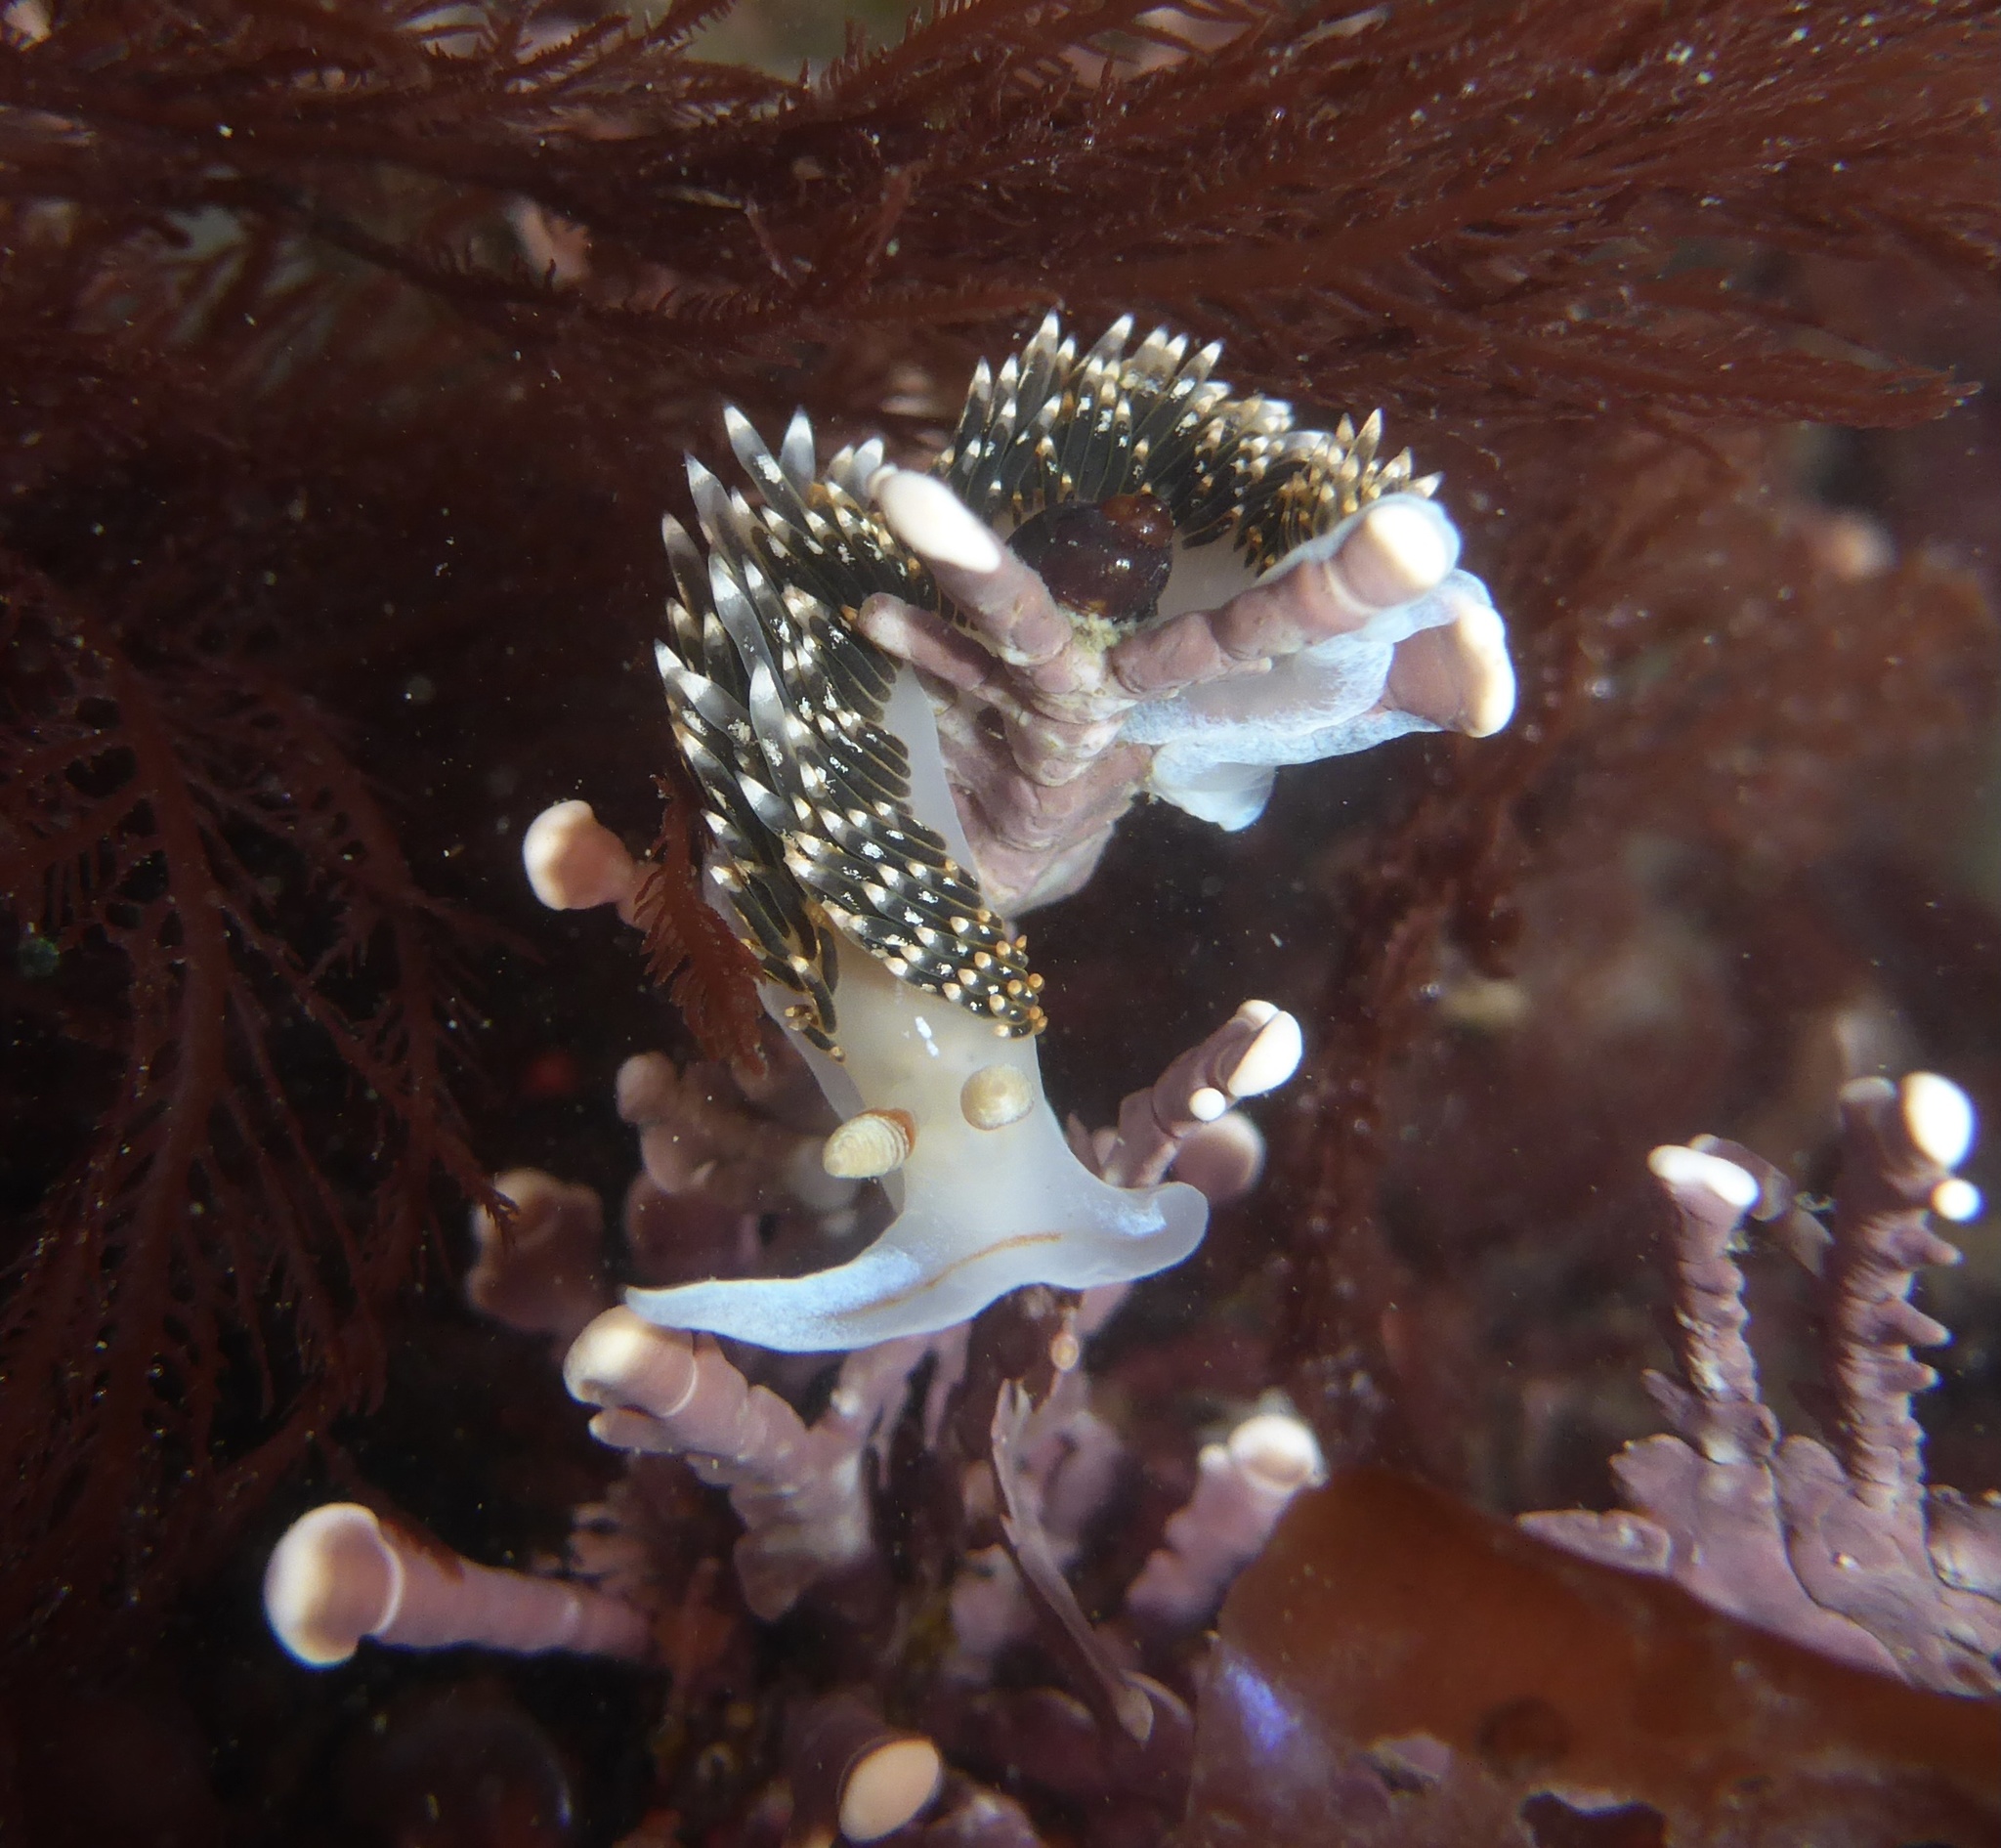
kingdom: Animalia
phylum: Mollusca
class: Gastropoda
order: Nudibranchia
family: Facelinidae
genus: Phidiana
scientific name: Phidiana hiltoni
